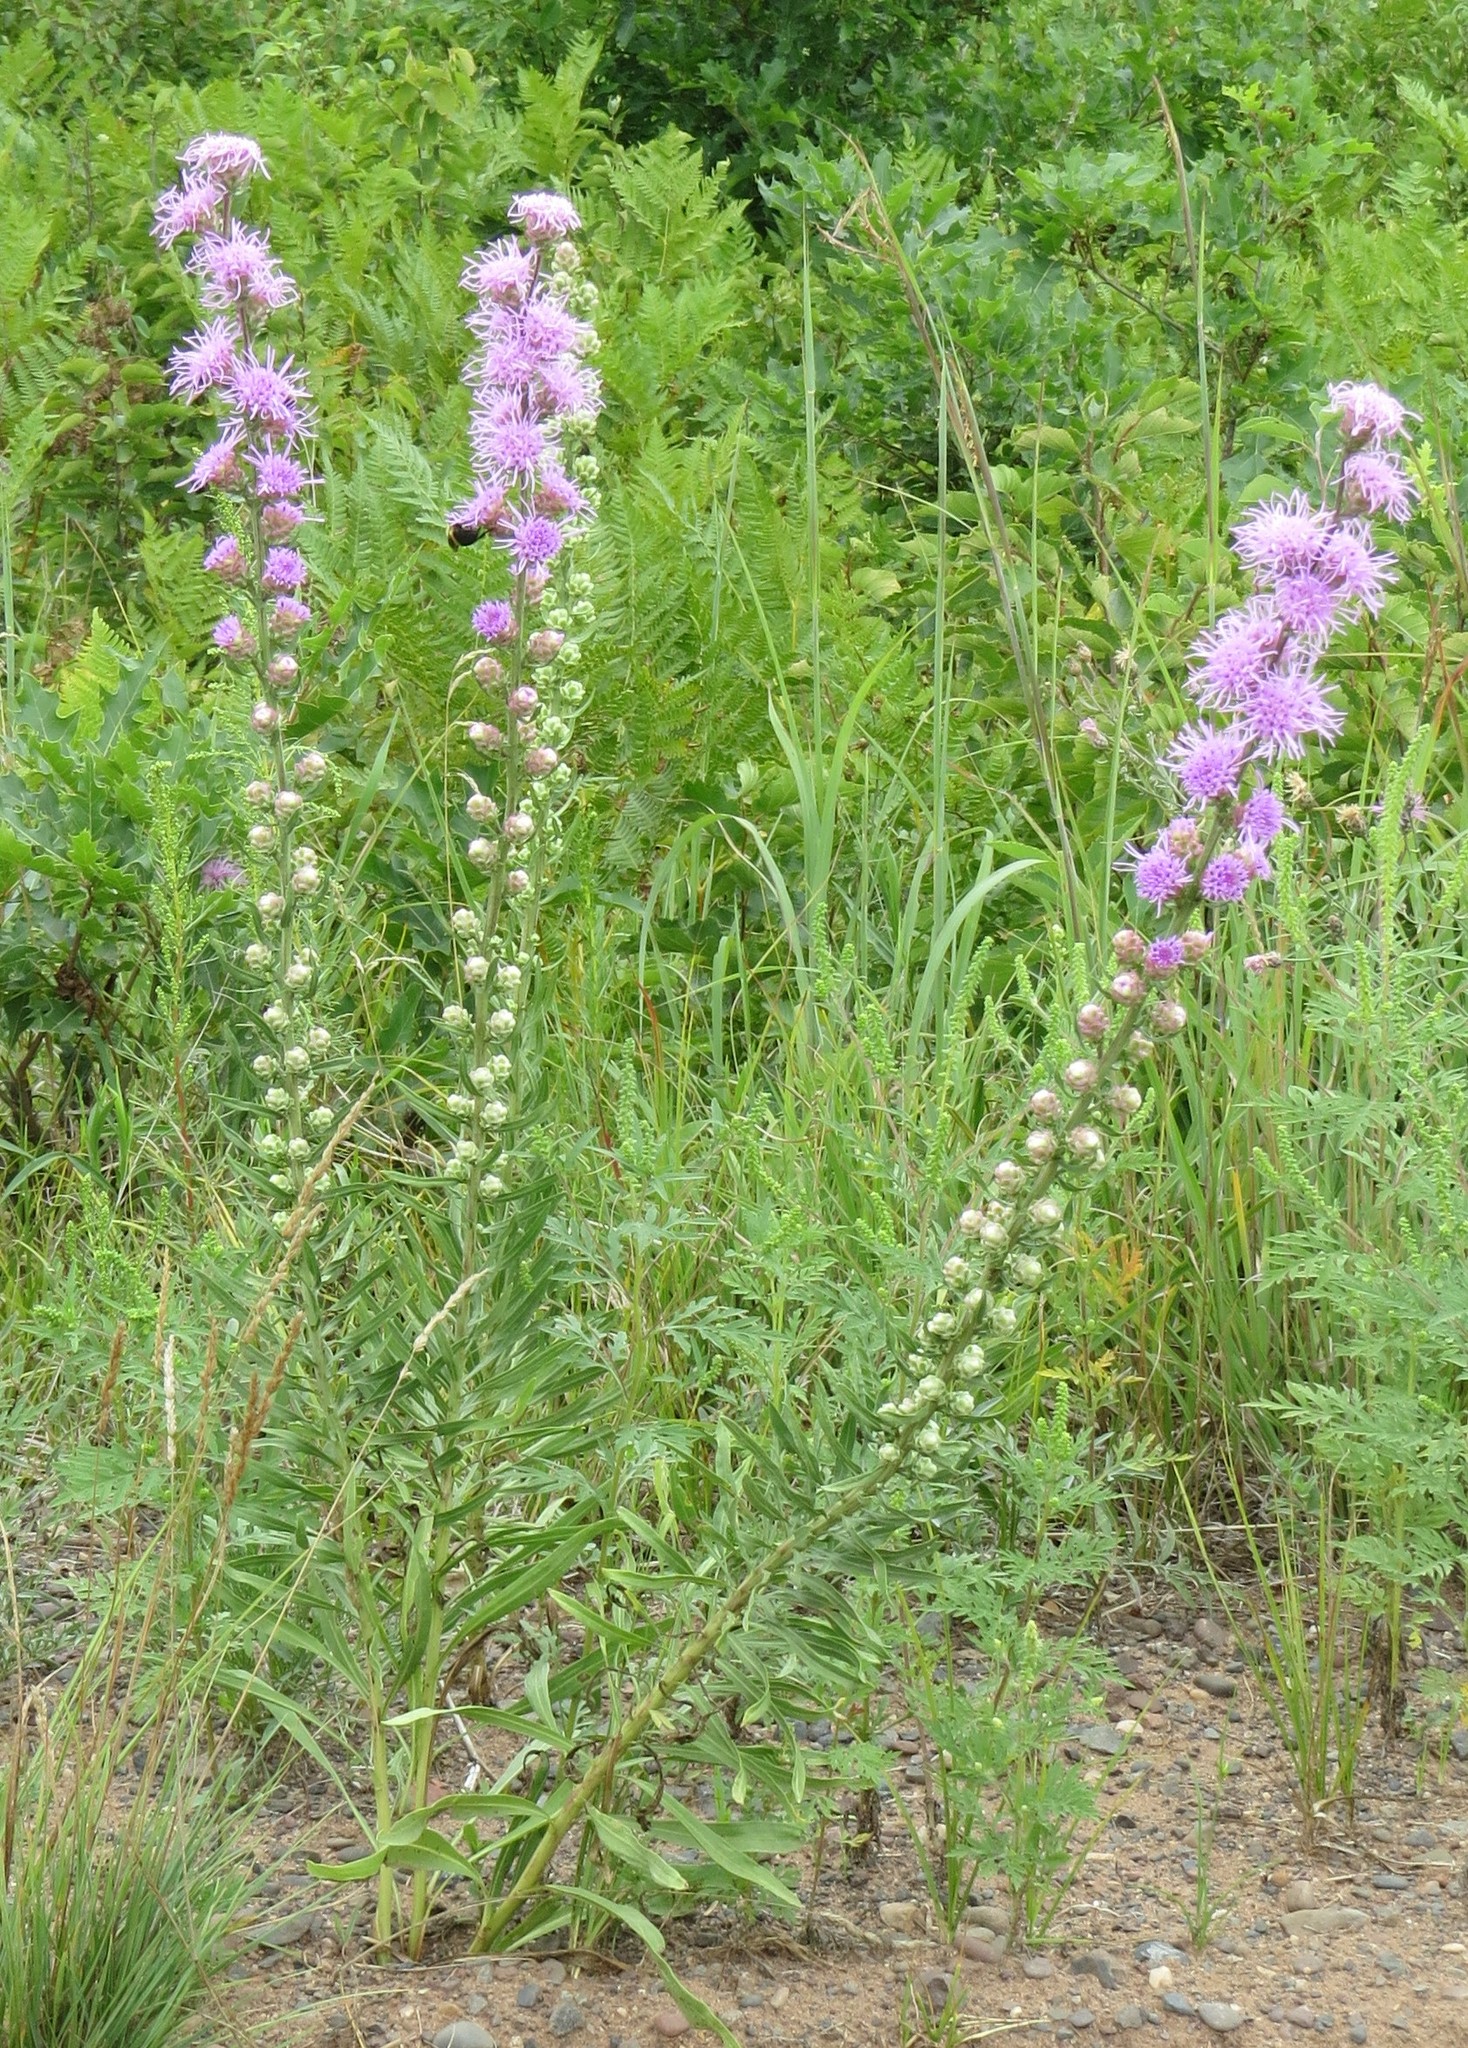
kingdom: Plantae
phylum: Tracheophyta
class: Magnoliopsida
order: Asterales
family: Asteraceae
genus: Liatris
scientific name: Liatris aspera
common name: Lacerate blazing-star
